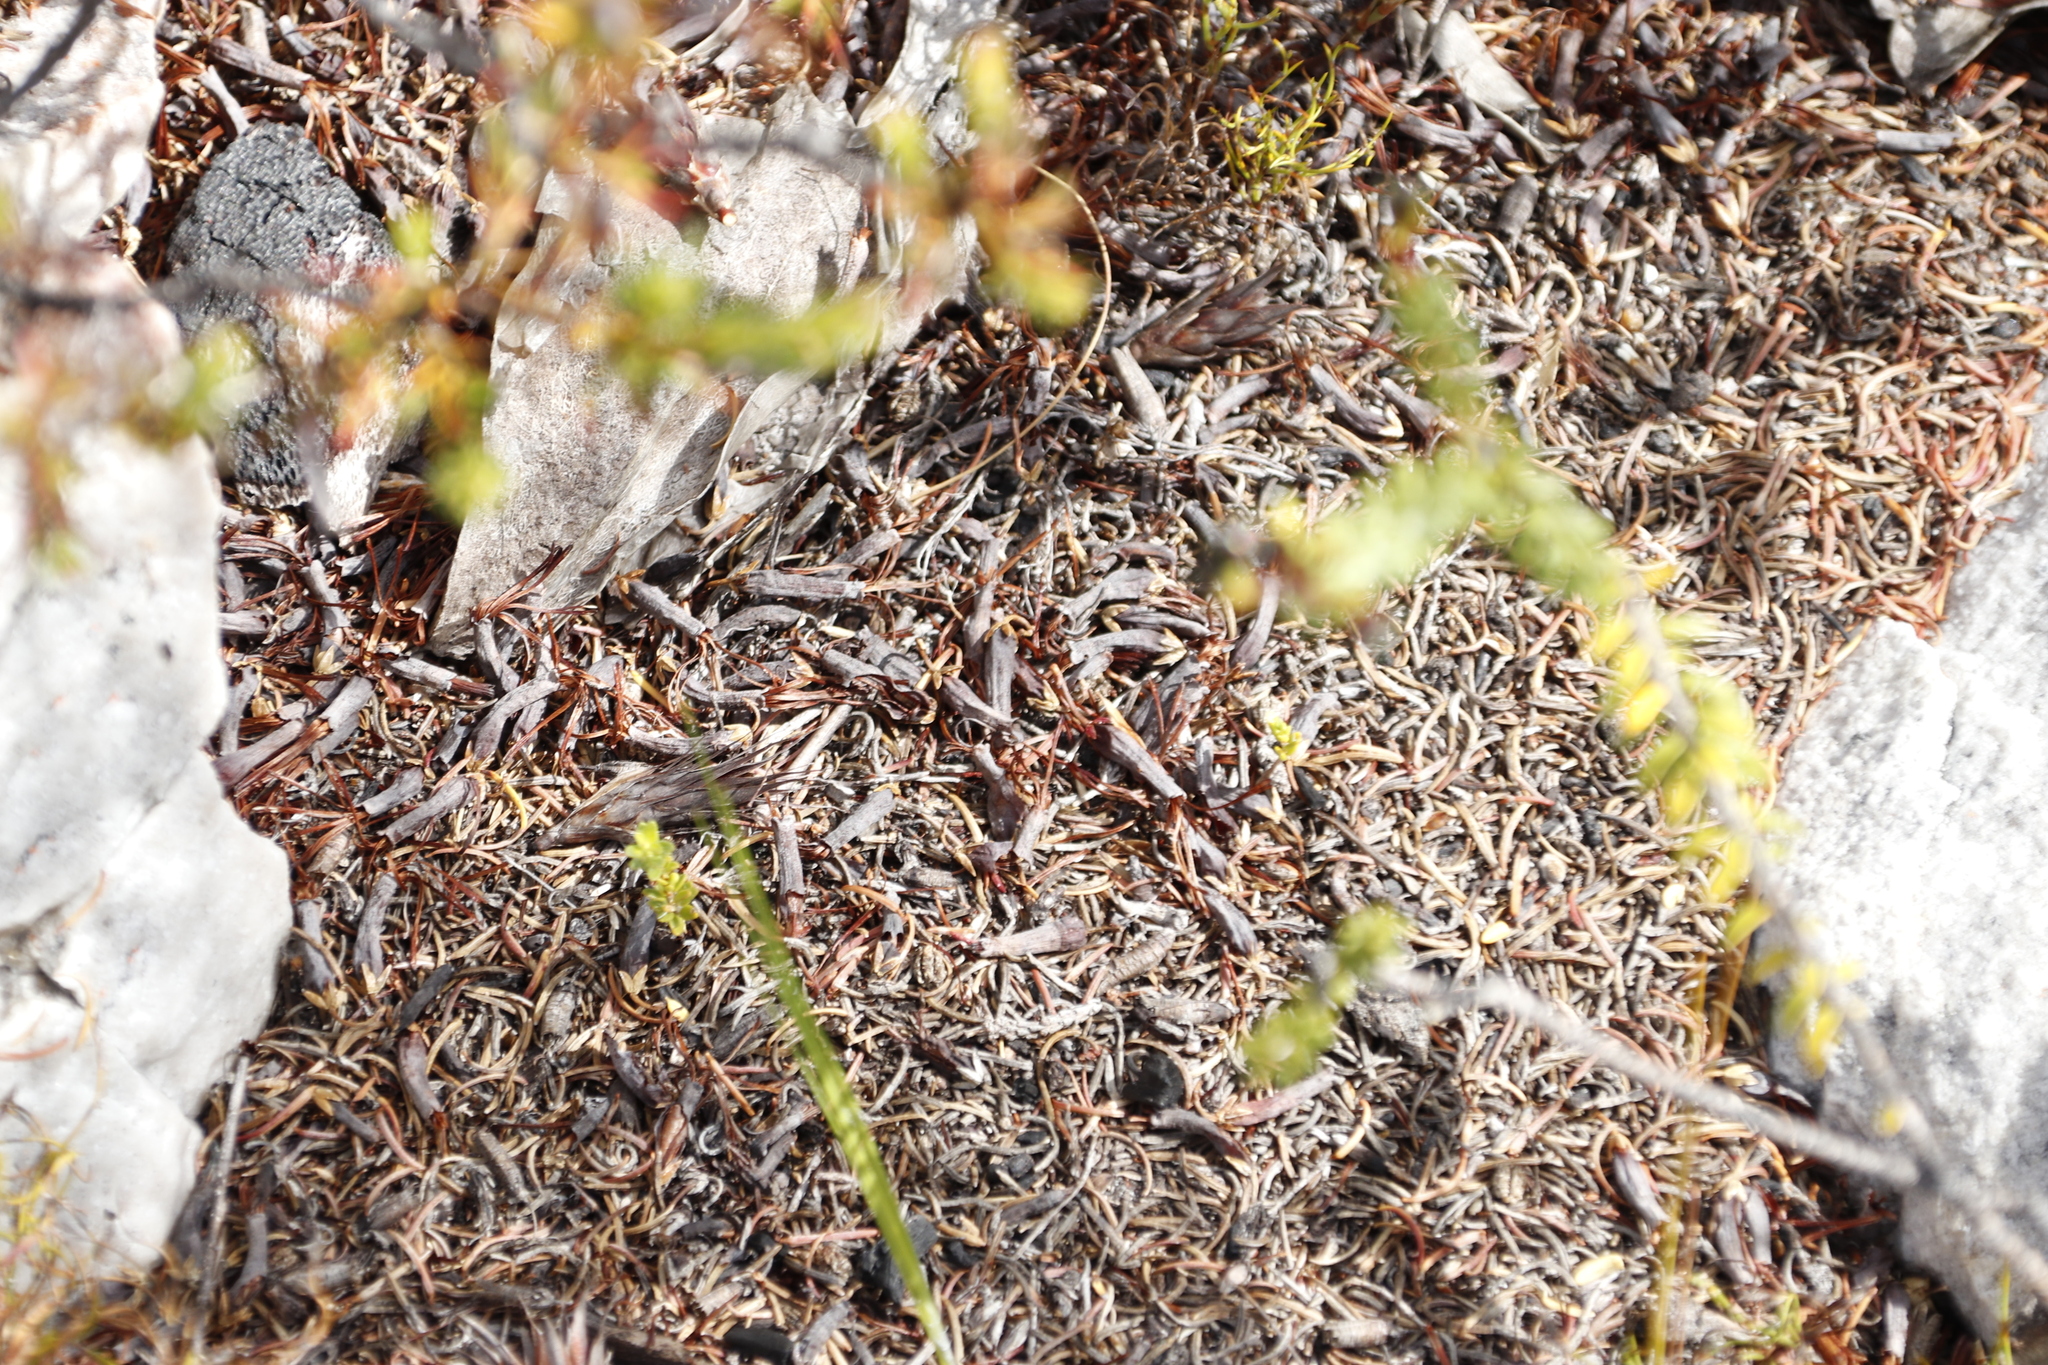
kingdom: Plantae
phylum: Tracheophyta
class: Magnoliopsida
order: Ericales
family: Ericaceae
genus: Erica
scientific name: Erica plukenetii
